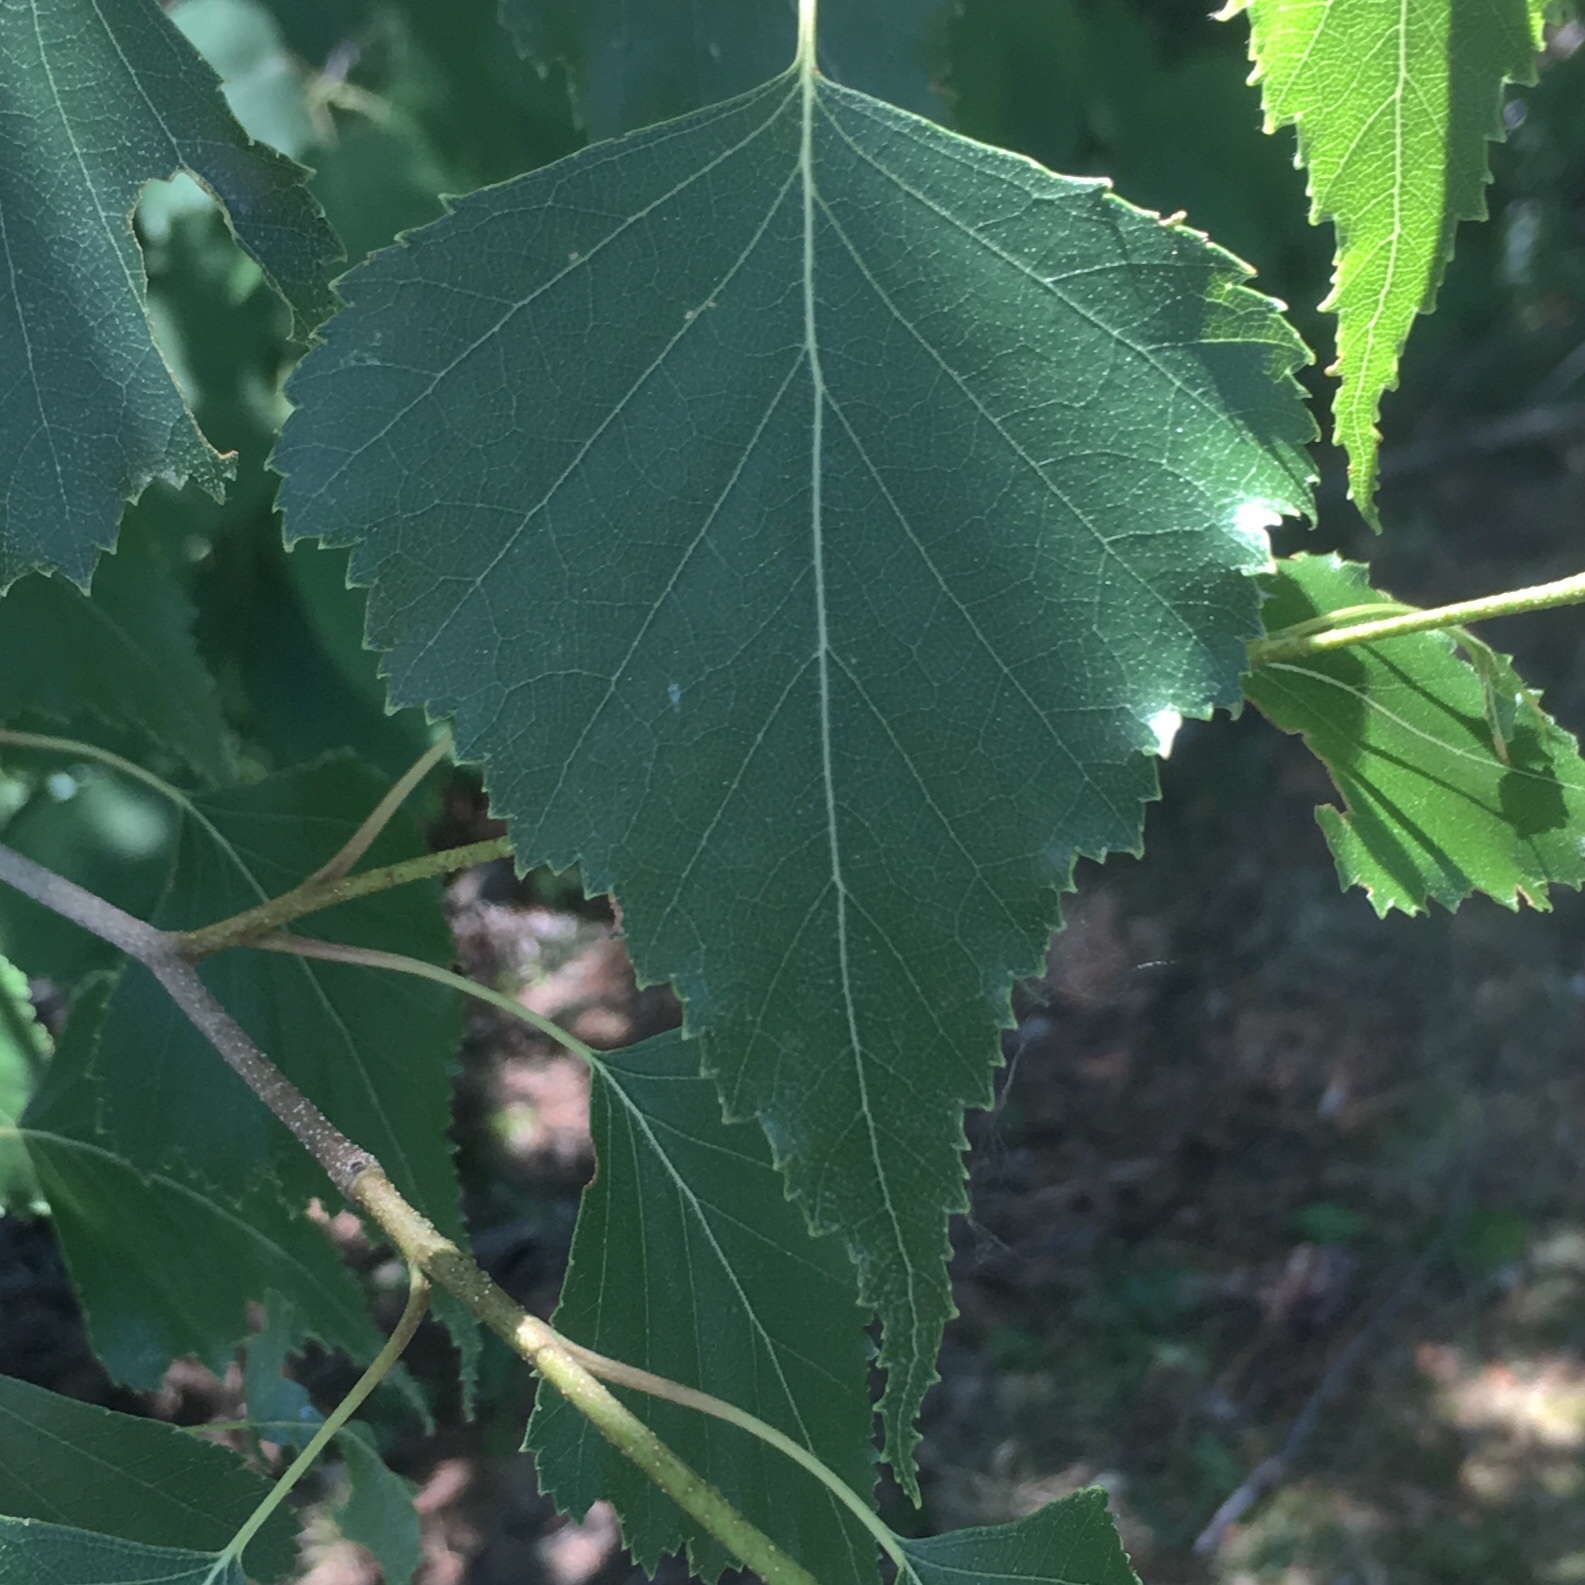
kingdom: Plantae
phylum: Tracheophyta
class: Magnoliopsida
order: Fagales
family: Betulaceae
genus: Betula
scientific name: Betula populifolia
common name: Fire birch
